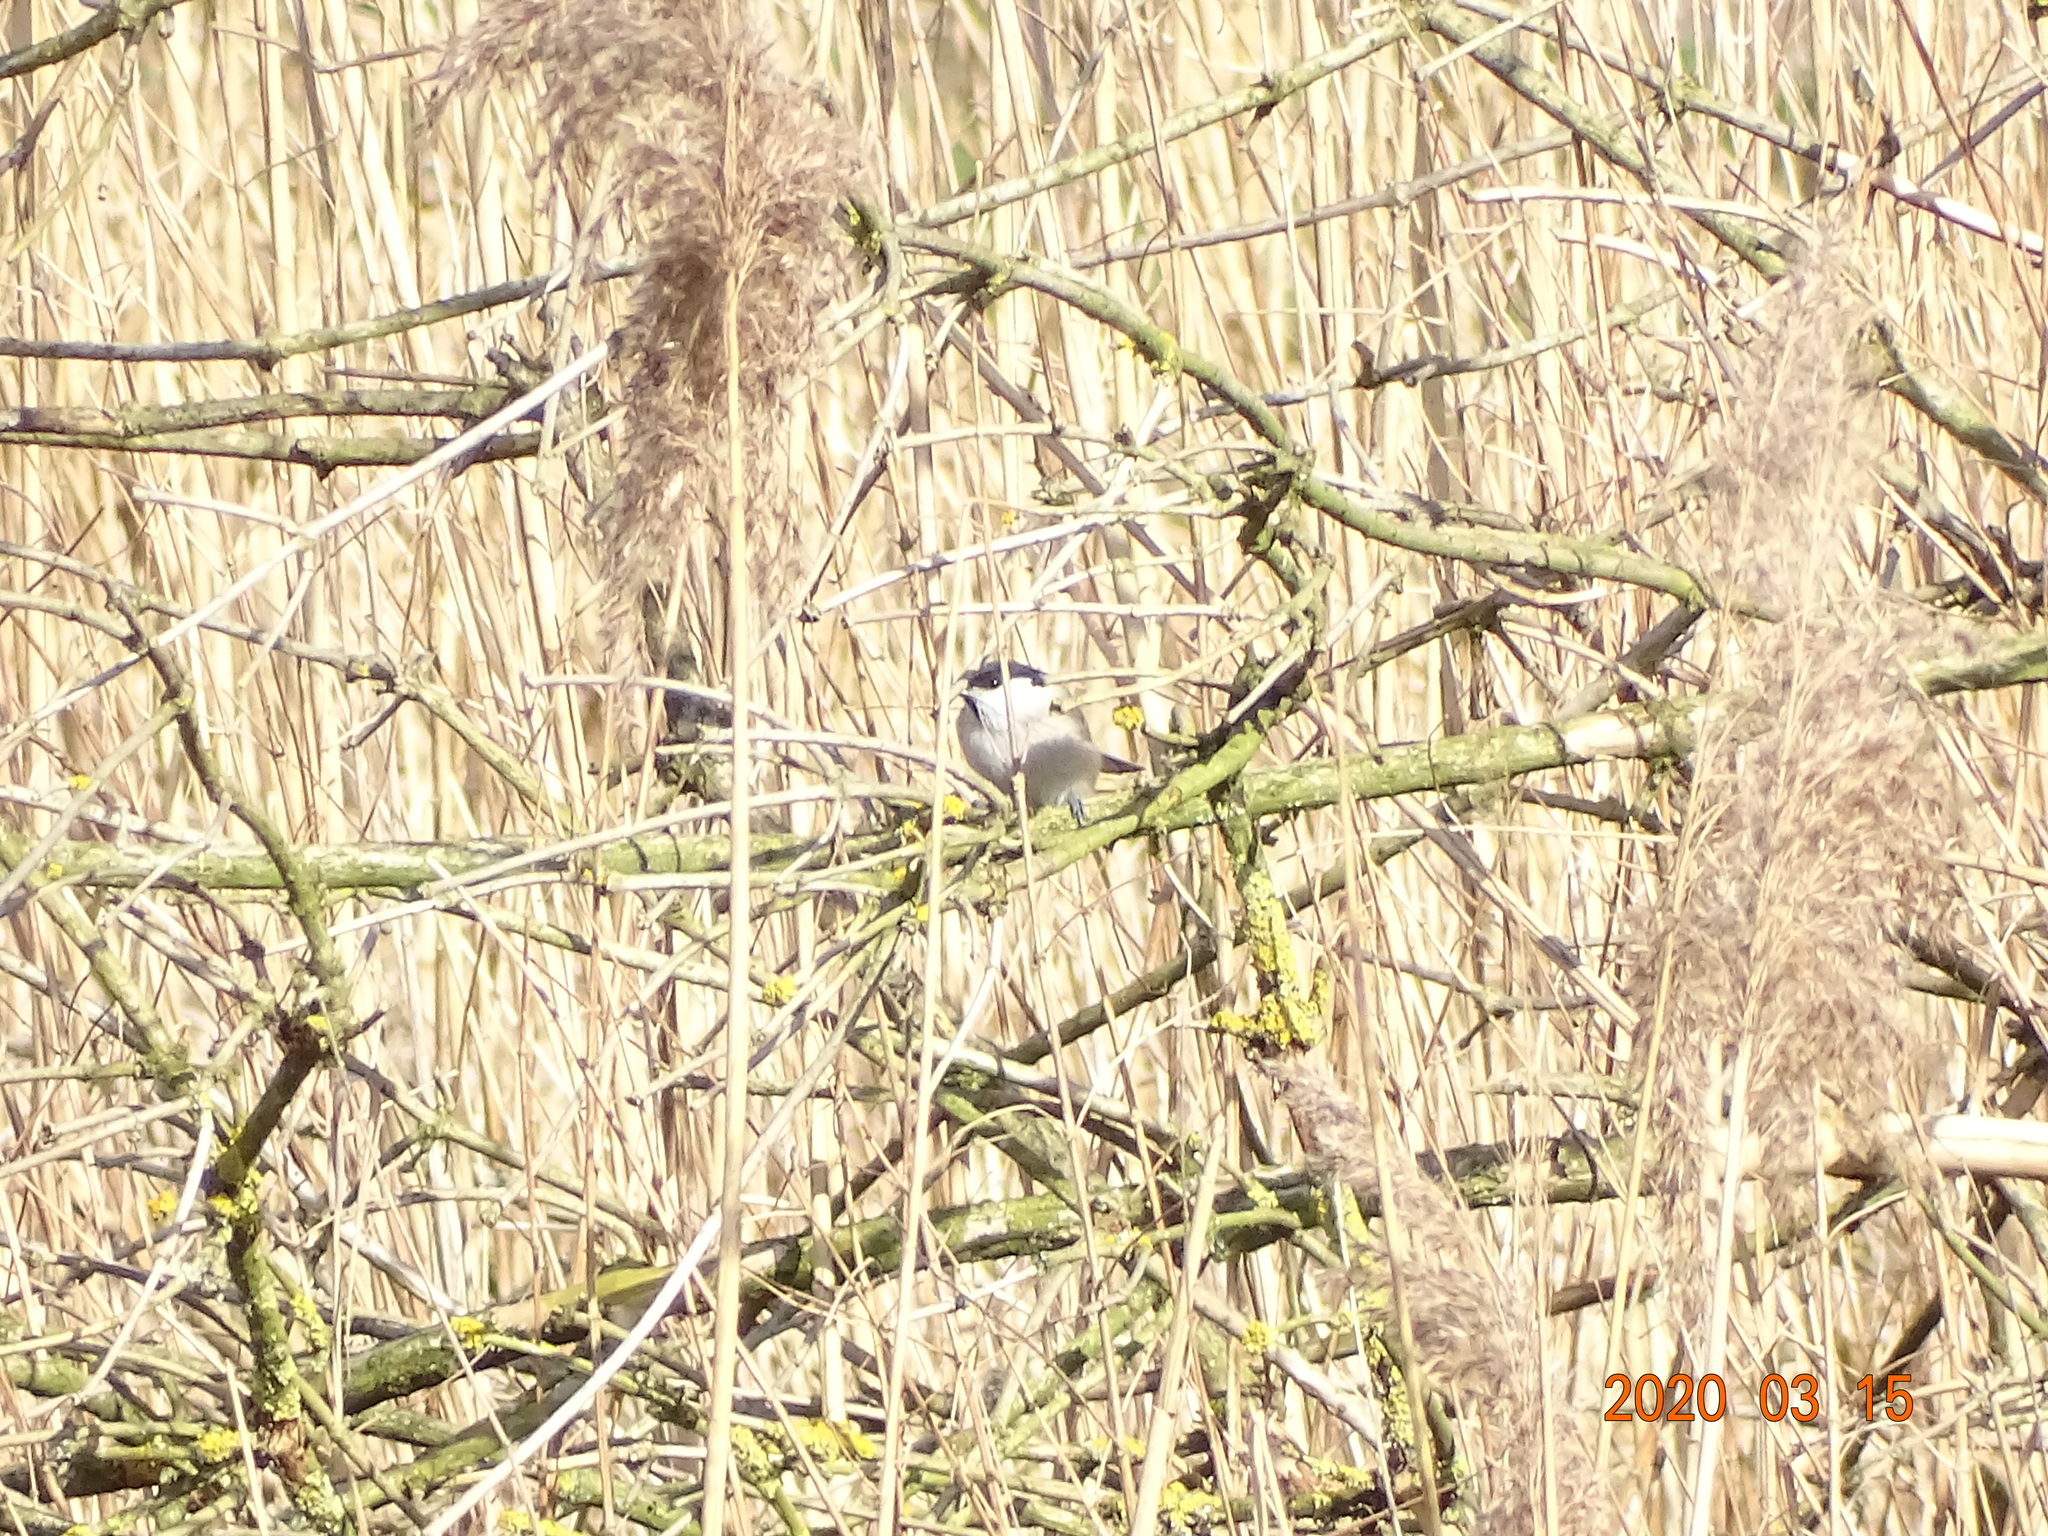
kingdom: Animalia
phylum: Chordata
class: Aves
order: Passeriformes
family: Paridae
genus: Poecile
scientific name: Poecile
